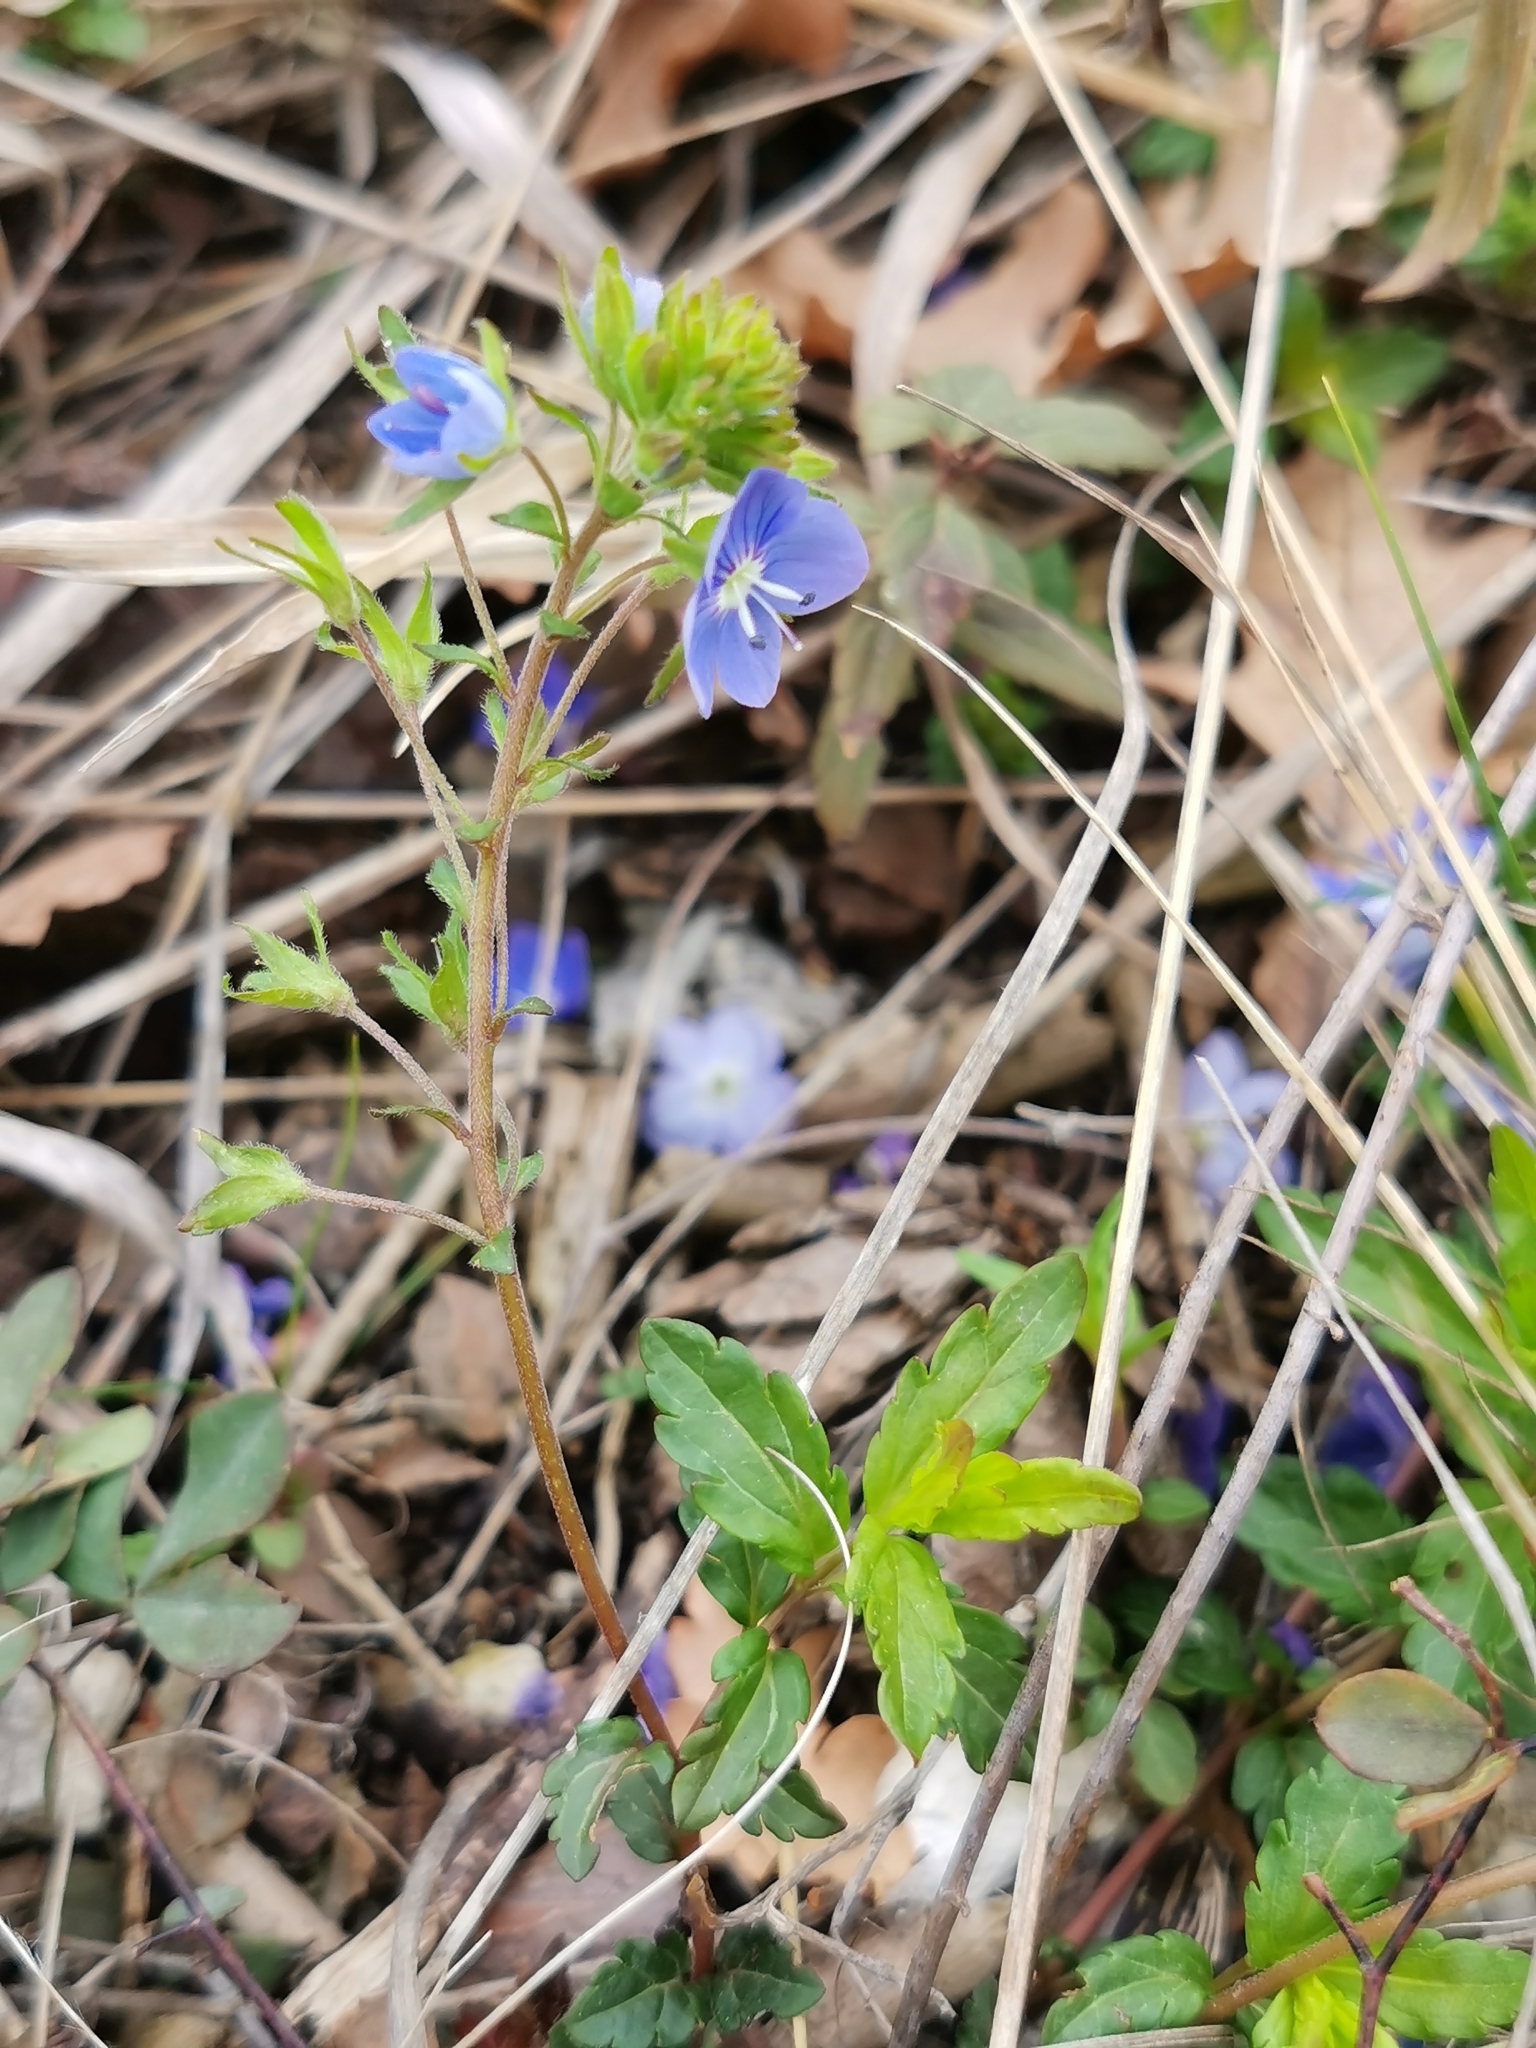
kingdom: Plantae
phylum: Tracheophyta
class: Magnoliopsida
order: Lamiales
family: Plantaginaceae
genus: Veronica
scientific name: Veronica
